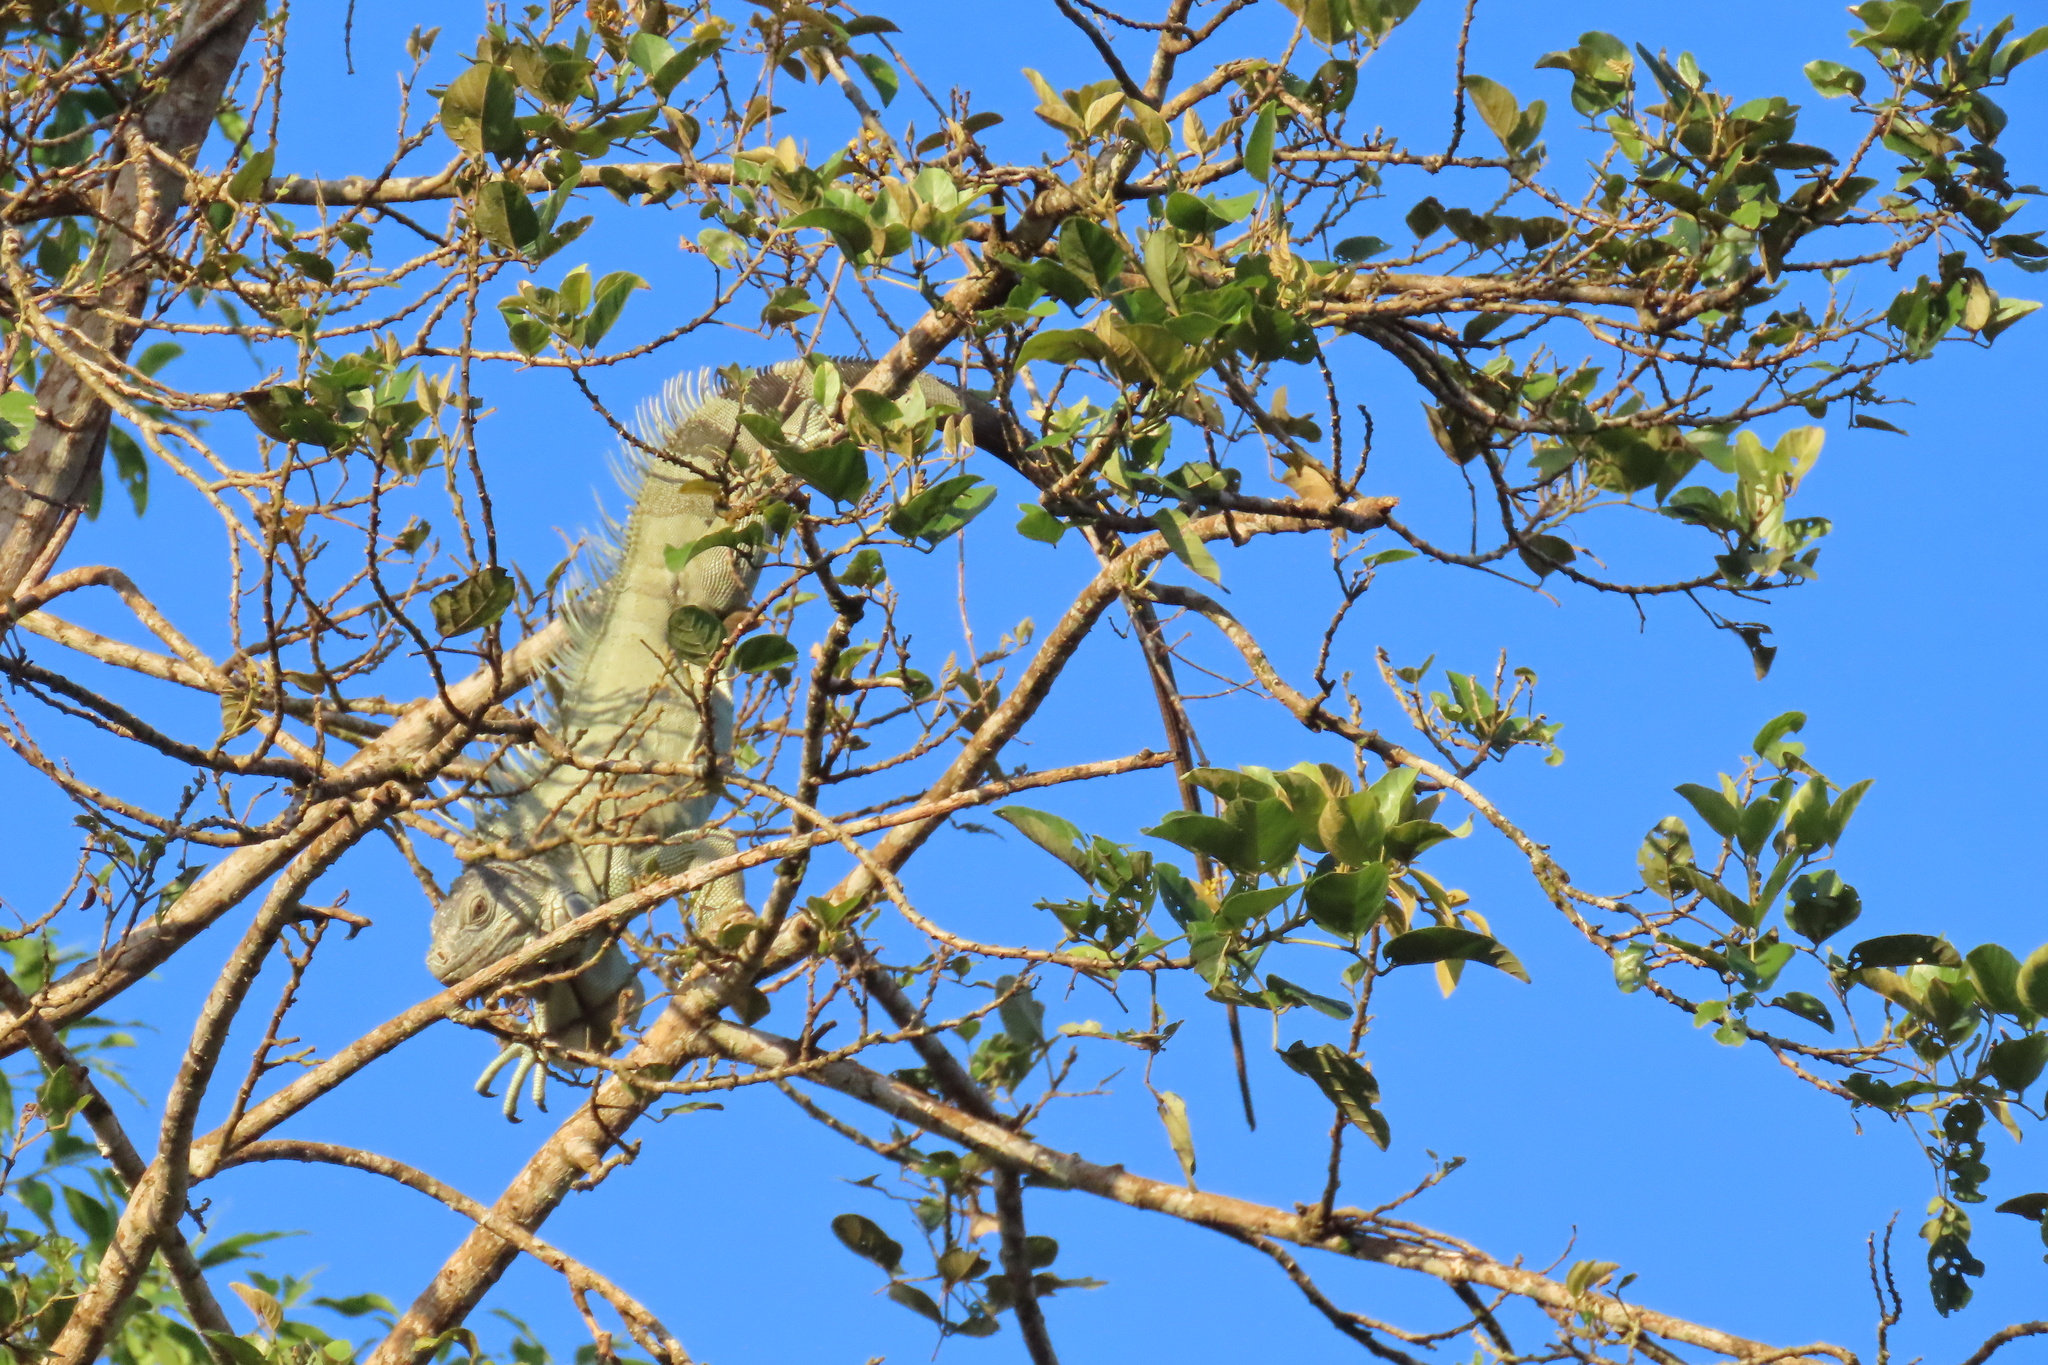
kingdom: Animalia
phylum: Chordata
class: Squamata
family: Iguanidae
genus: Iguana
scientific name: Iguana iguana
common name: Green iguana
